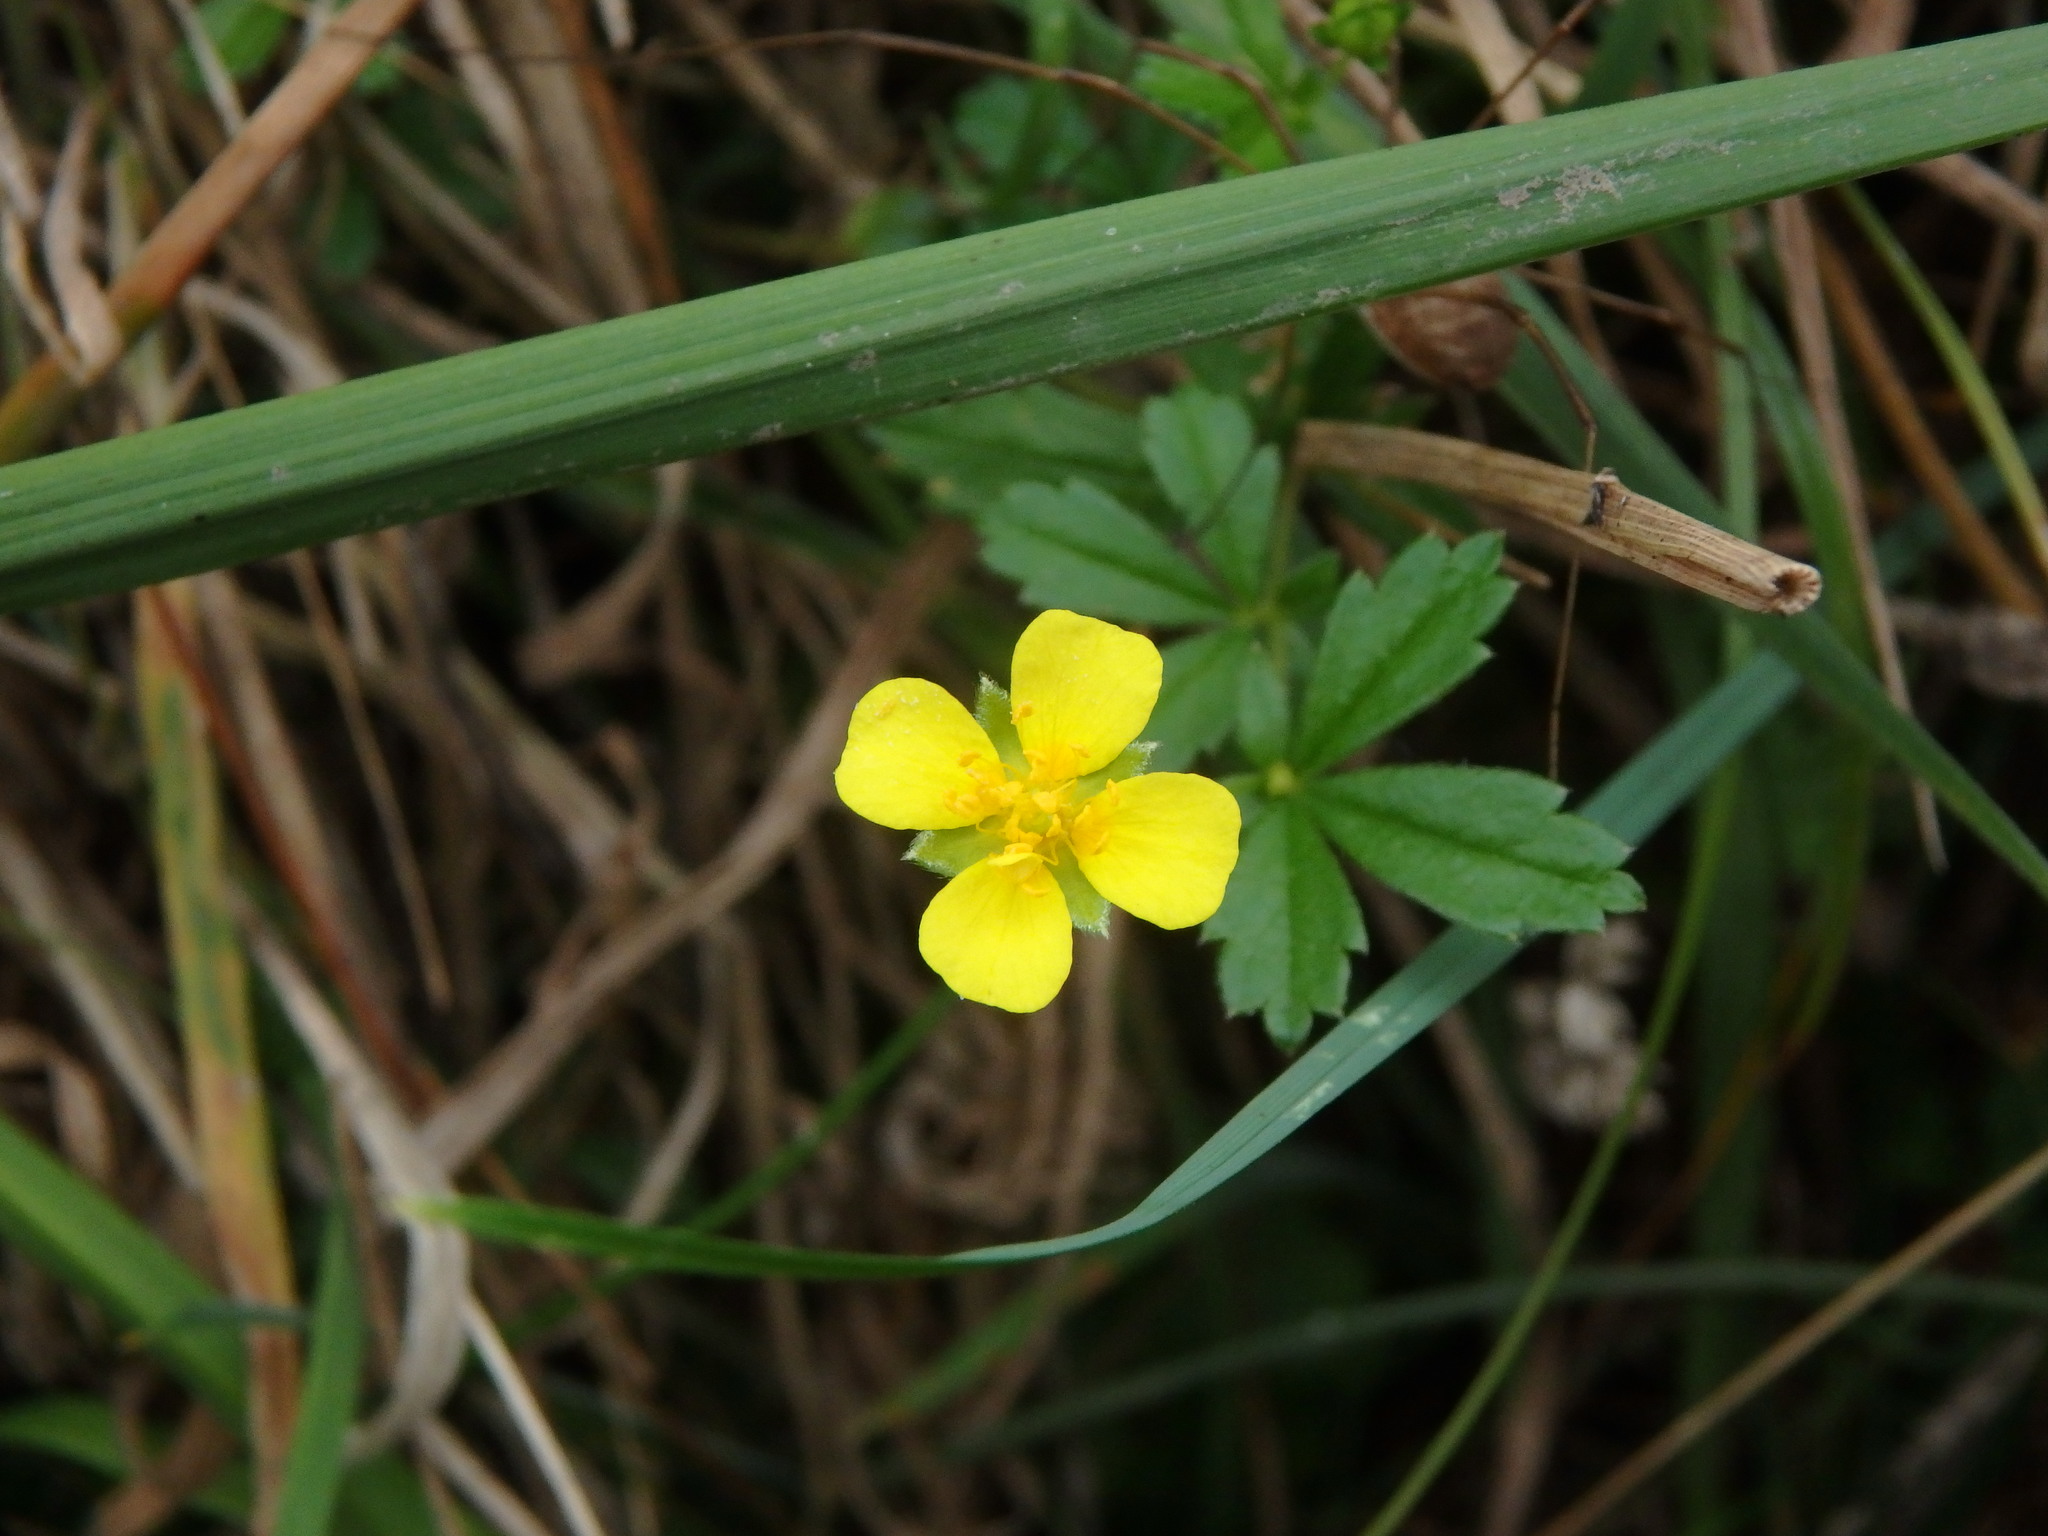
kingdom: Plantae
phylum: Tracheophyta
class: Magnoliopsida
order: Rosales
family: Rosaceae
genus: Potentilla
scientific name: Potentilla erecta
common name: Tormentil
